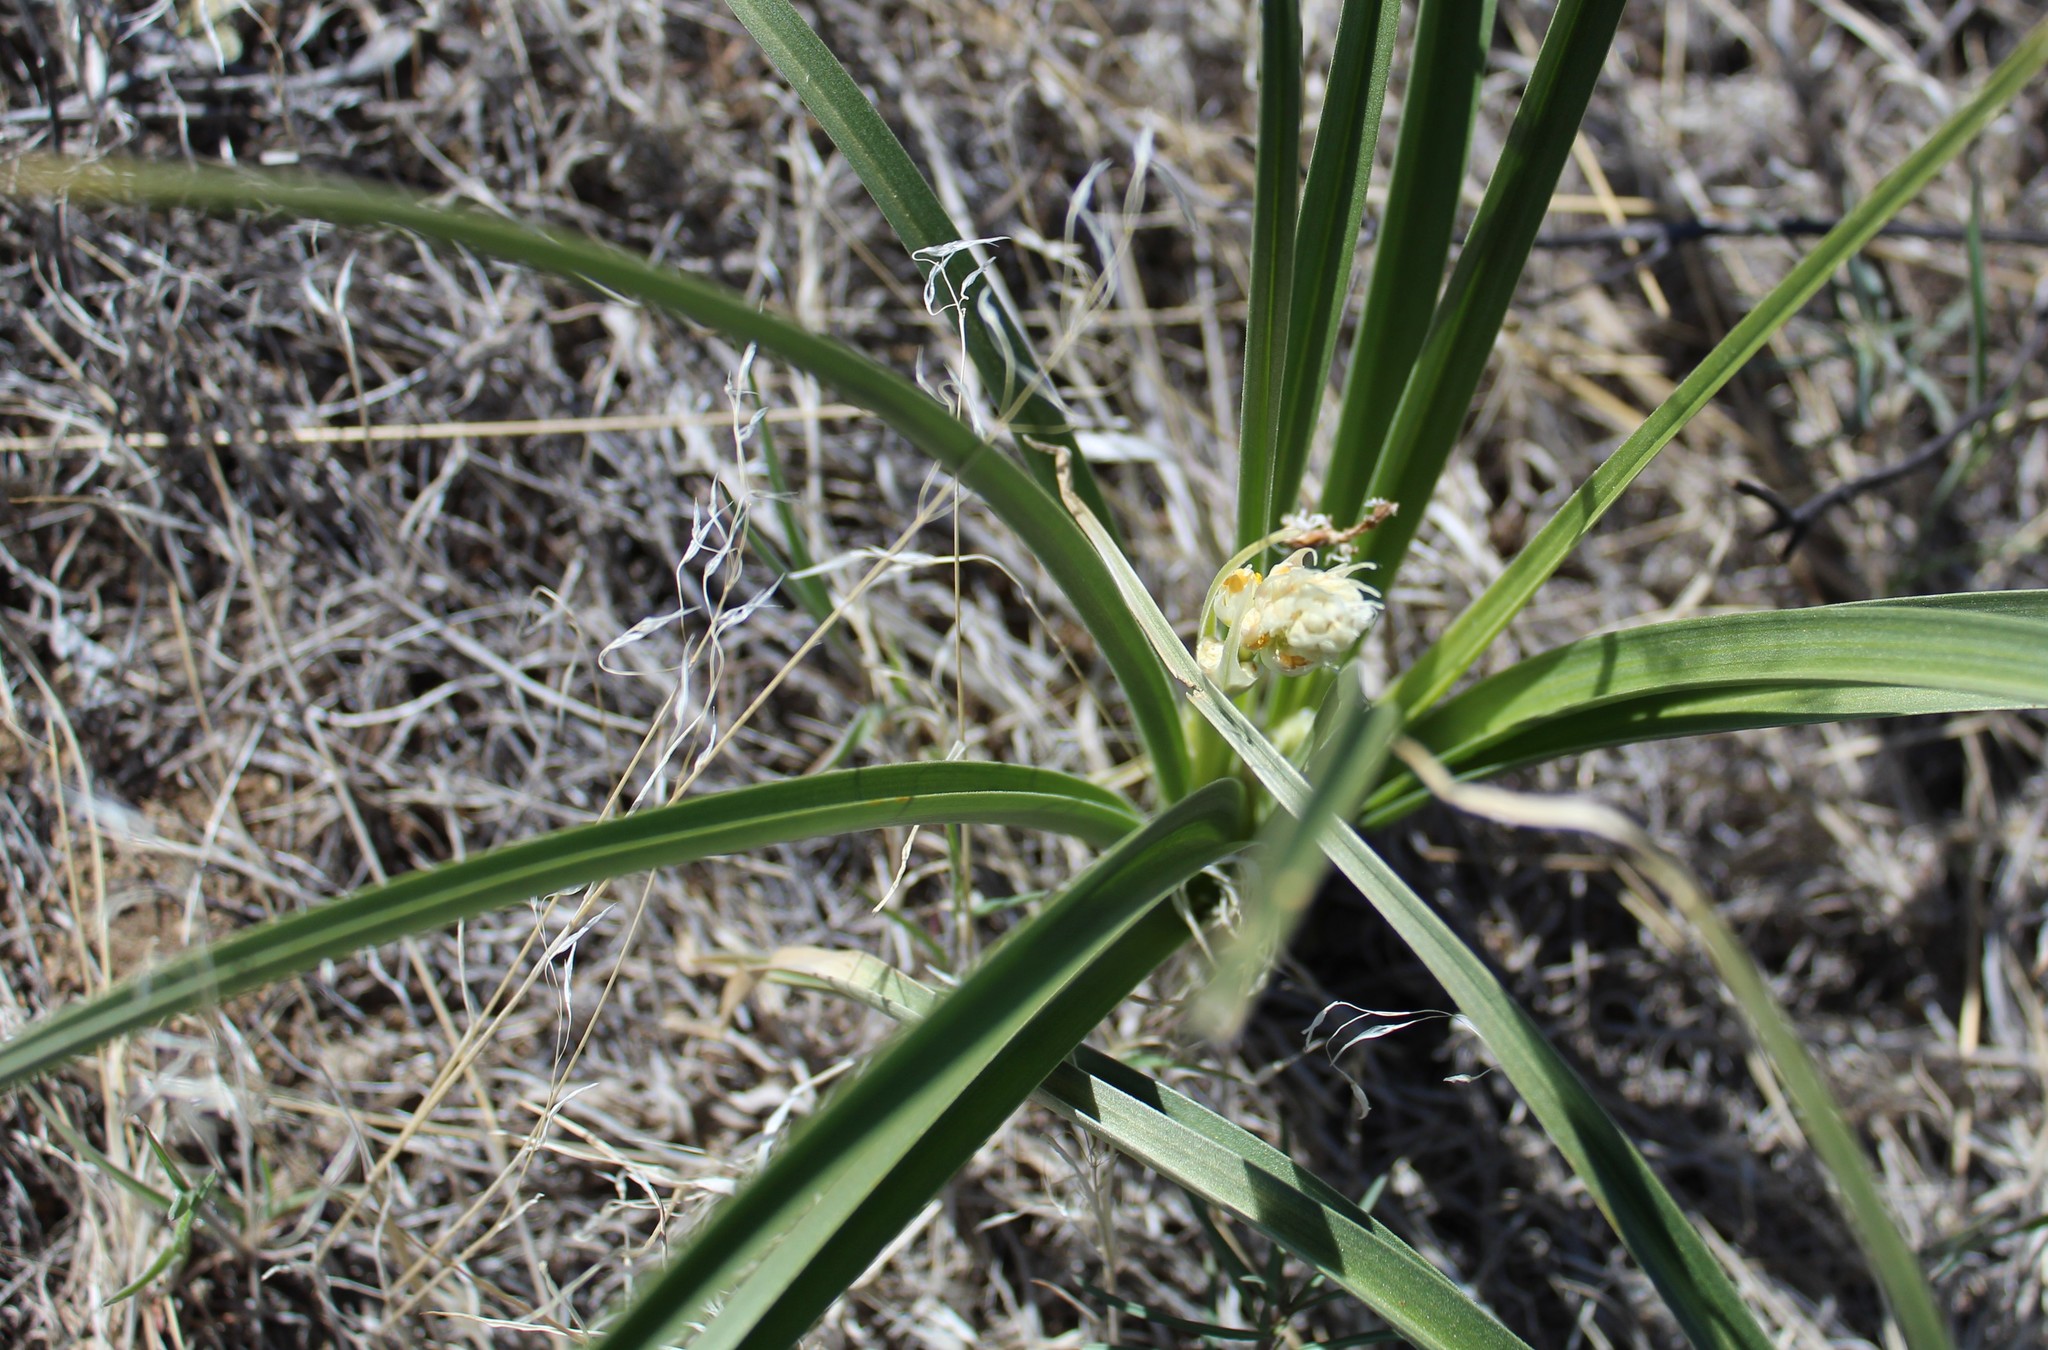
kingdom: Plantae
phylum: Tracheophyta
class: Liliopsida
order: Liliales
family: Melanthiaceae
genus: Toxicoscordion
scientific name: Toxicoscordion venenosum
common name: Meadow death camas
